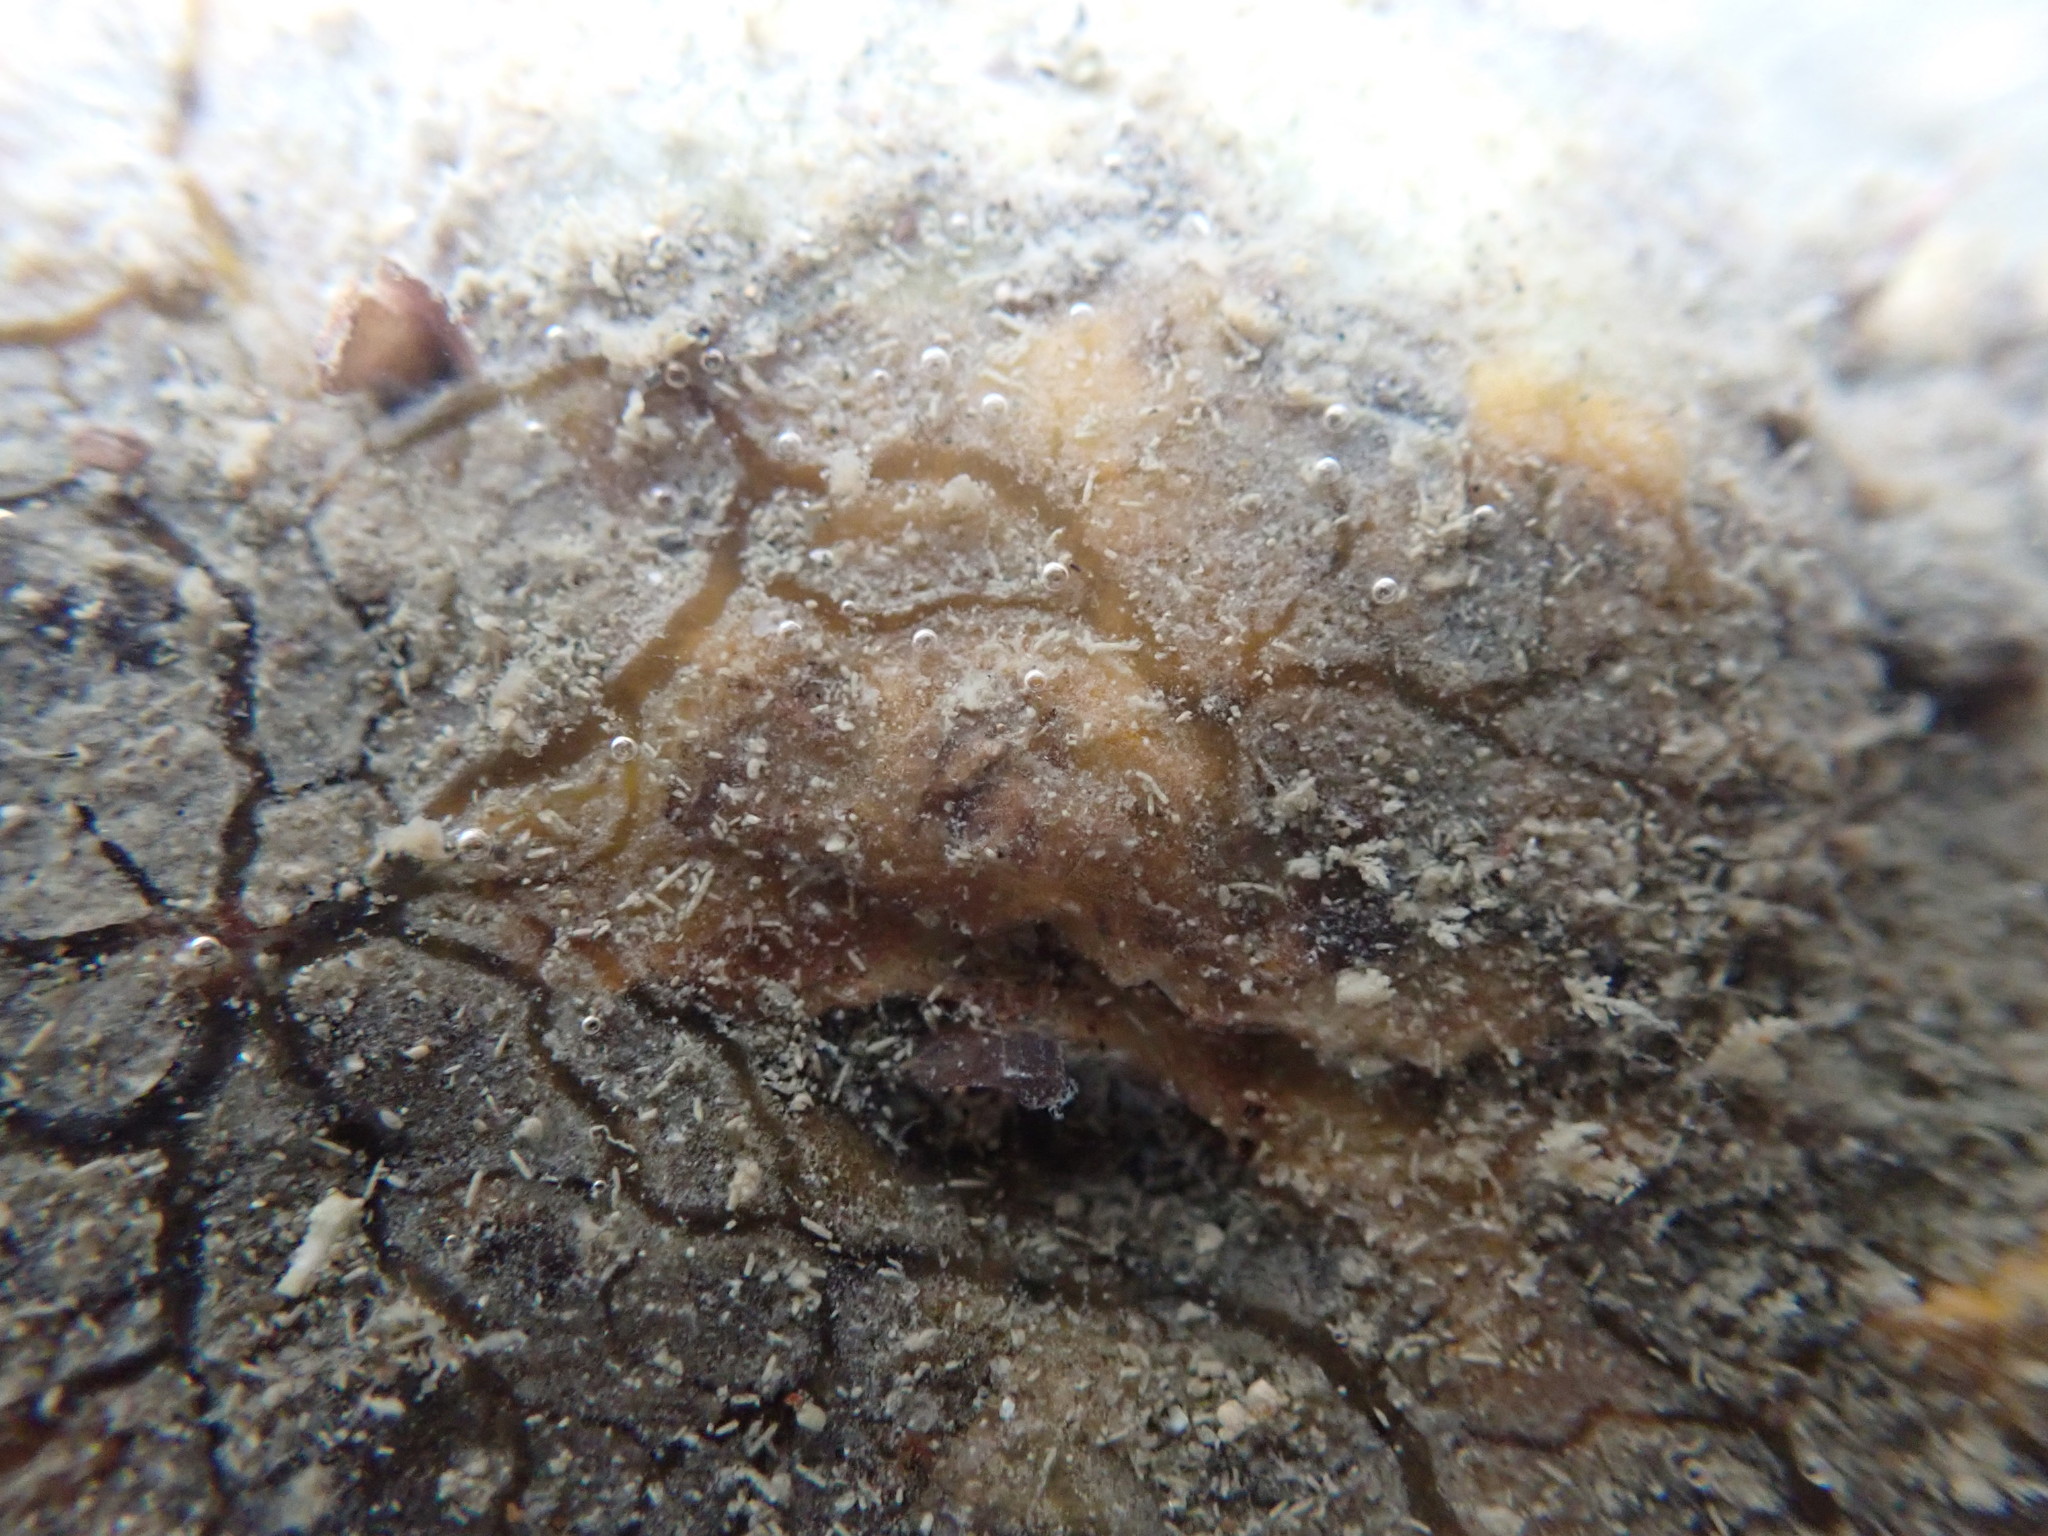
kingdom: Animalia
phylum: Porifera
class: Demospongiae
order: Tethyida
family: Timeidae
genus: Timea
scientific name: Timea aurantiaca
